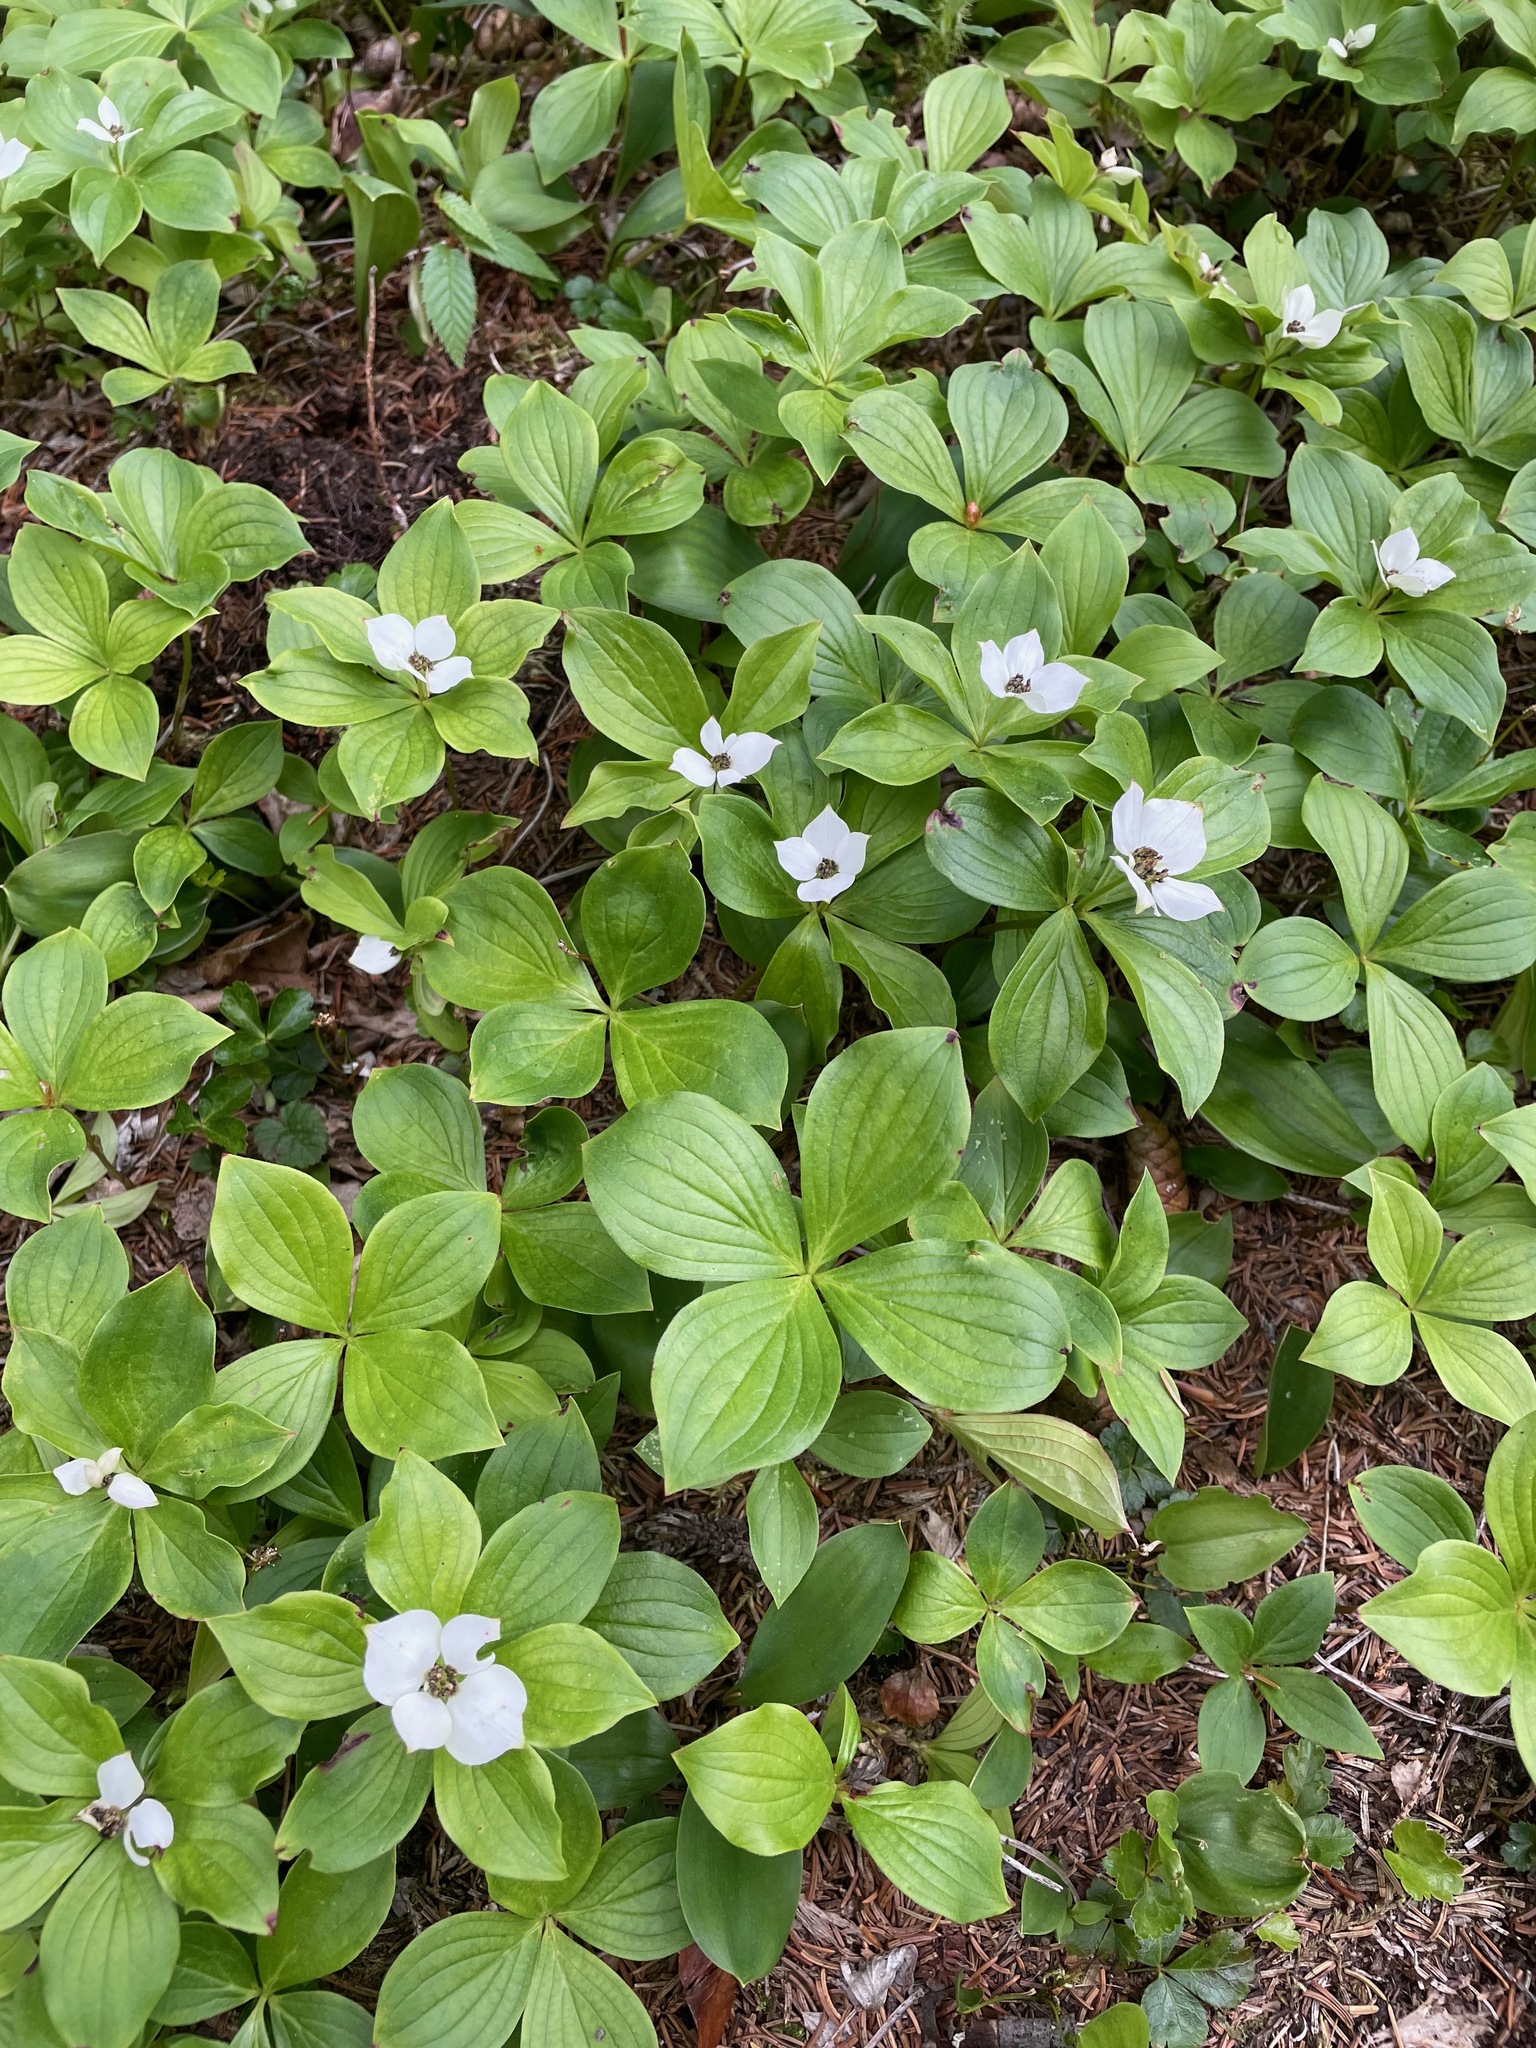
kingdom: Plantae
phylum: Tracheophyta
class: Magnoliopsida
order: Cornales
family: Cornaceae
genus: Cornus
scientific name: Cornus canadensis
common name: Creeping dogwood
